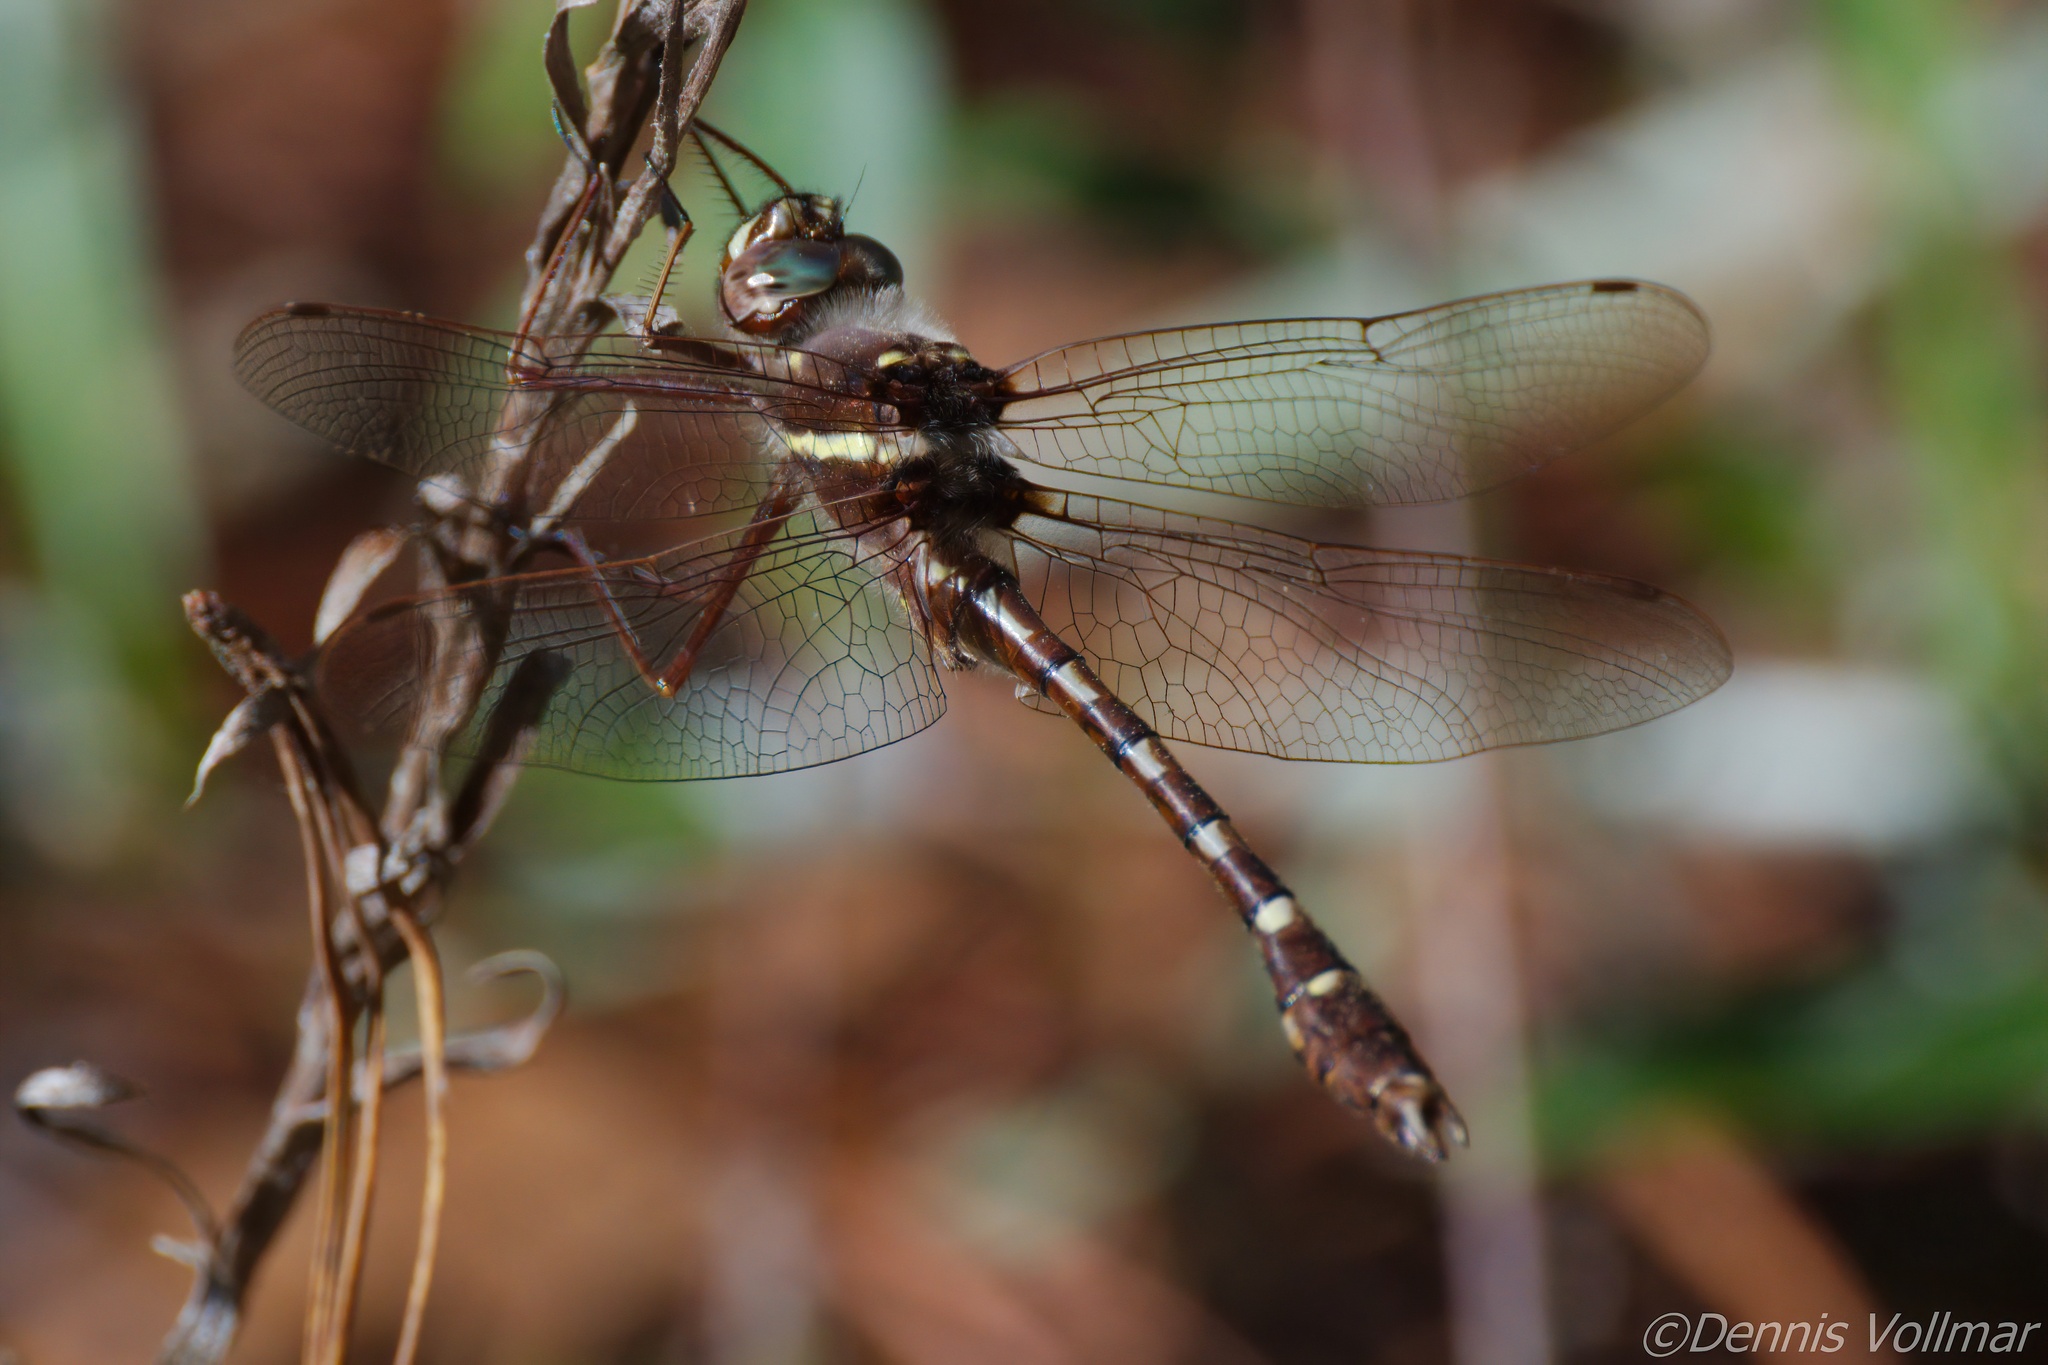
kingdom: Animalia
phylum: Arthropoda
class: Insecta
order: Odonata
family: Macromiidae
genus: Didymops
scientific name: Didymops transversa
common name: Stream cruiser
